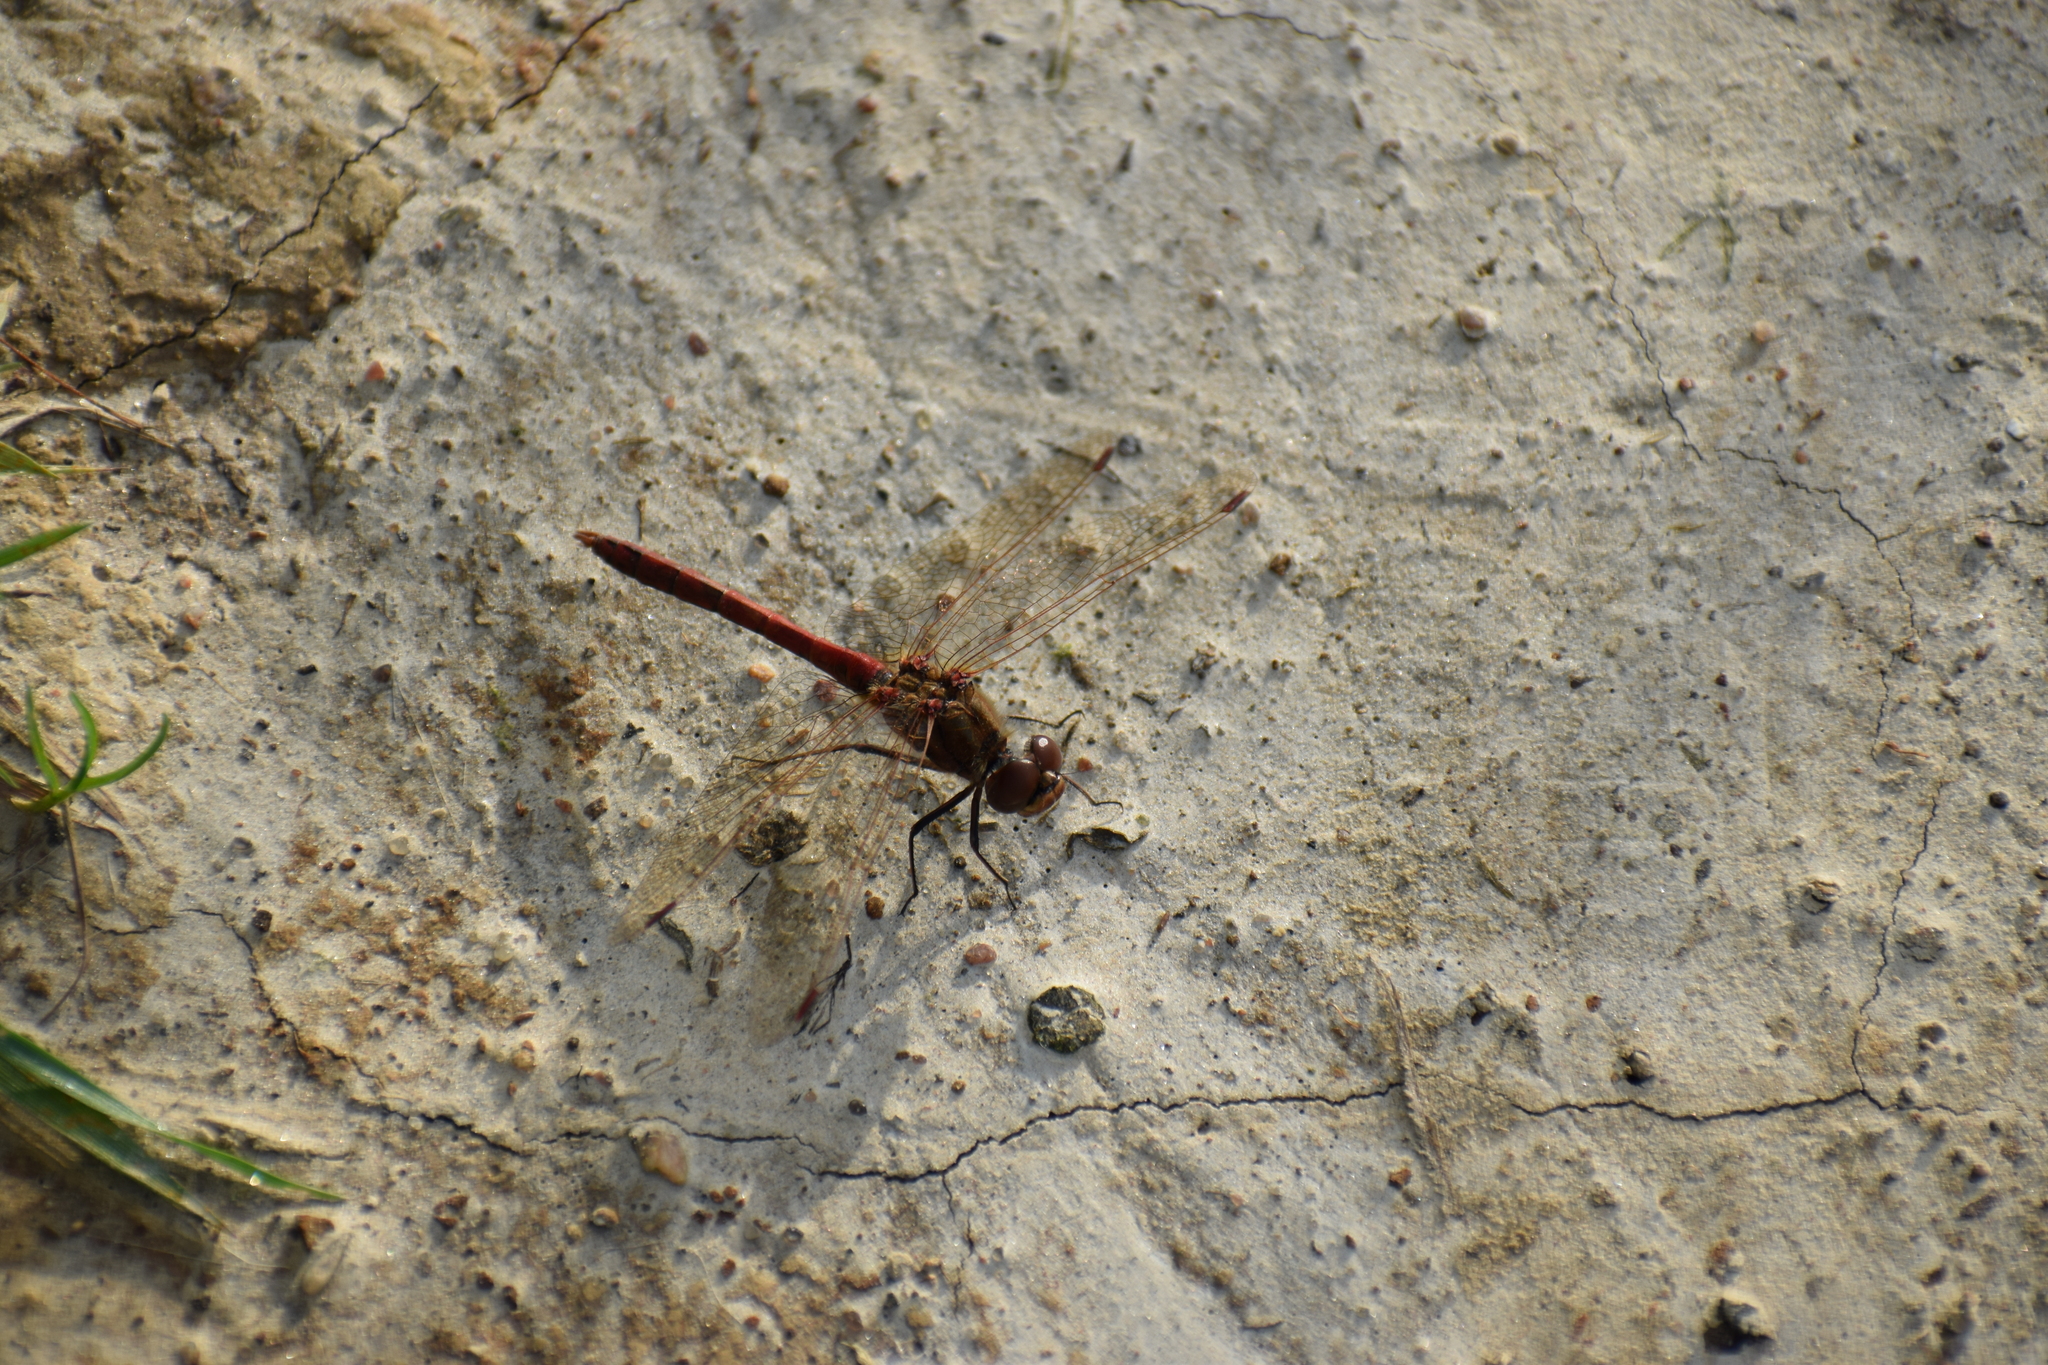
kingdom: Animalia
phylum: Arthropoda
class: Insecta
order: Odonata
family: Libellulidae
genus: Sympetrum
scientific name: Sympetrum vulgatum
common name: Vagrant darter
